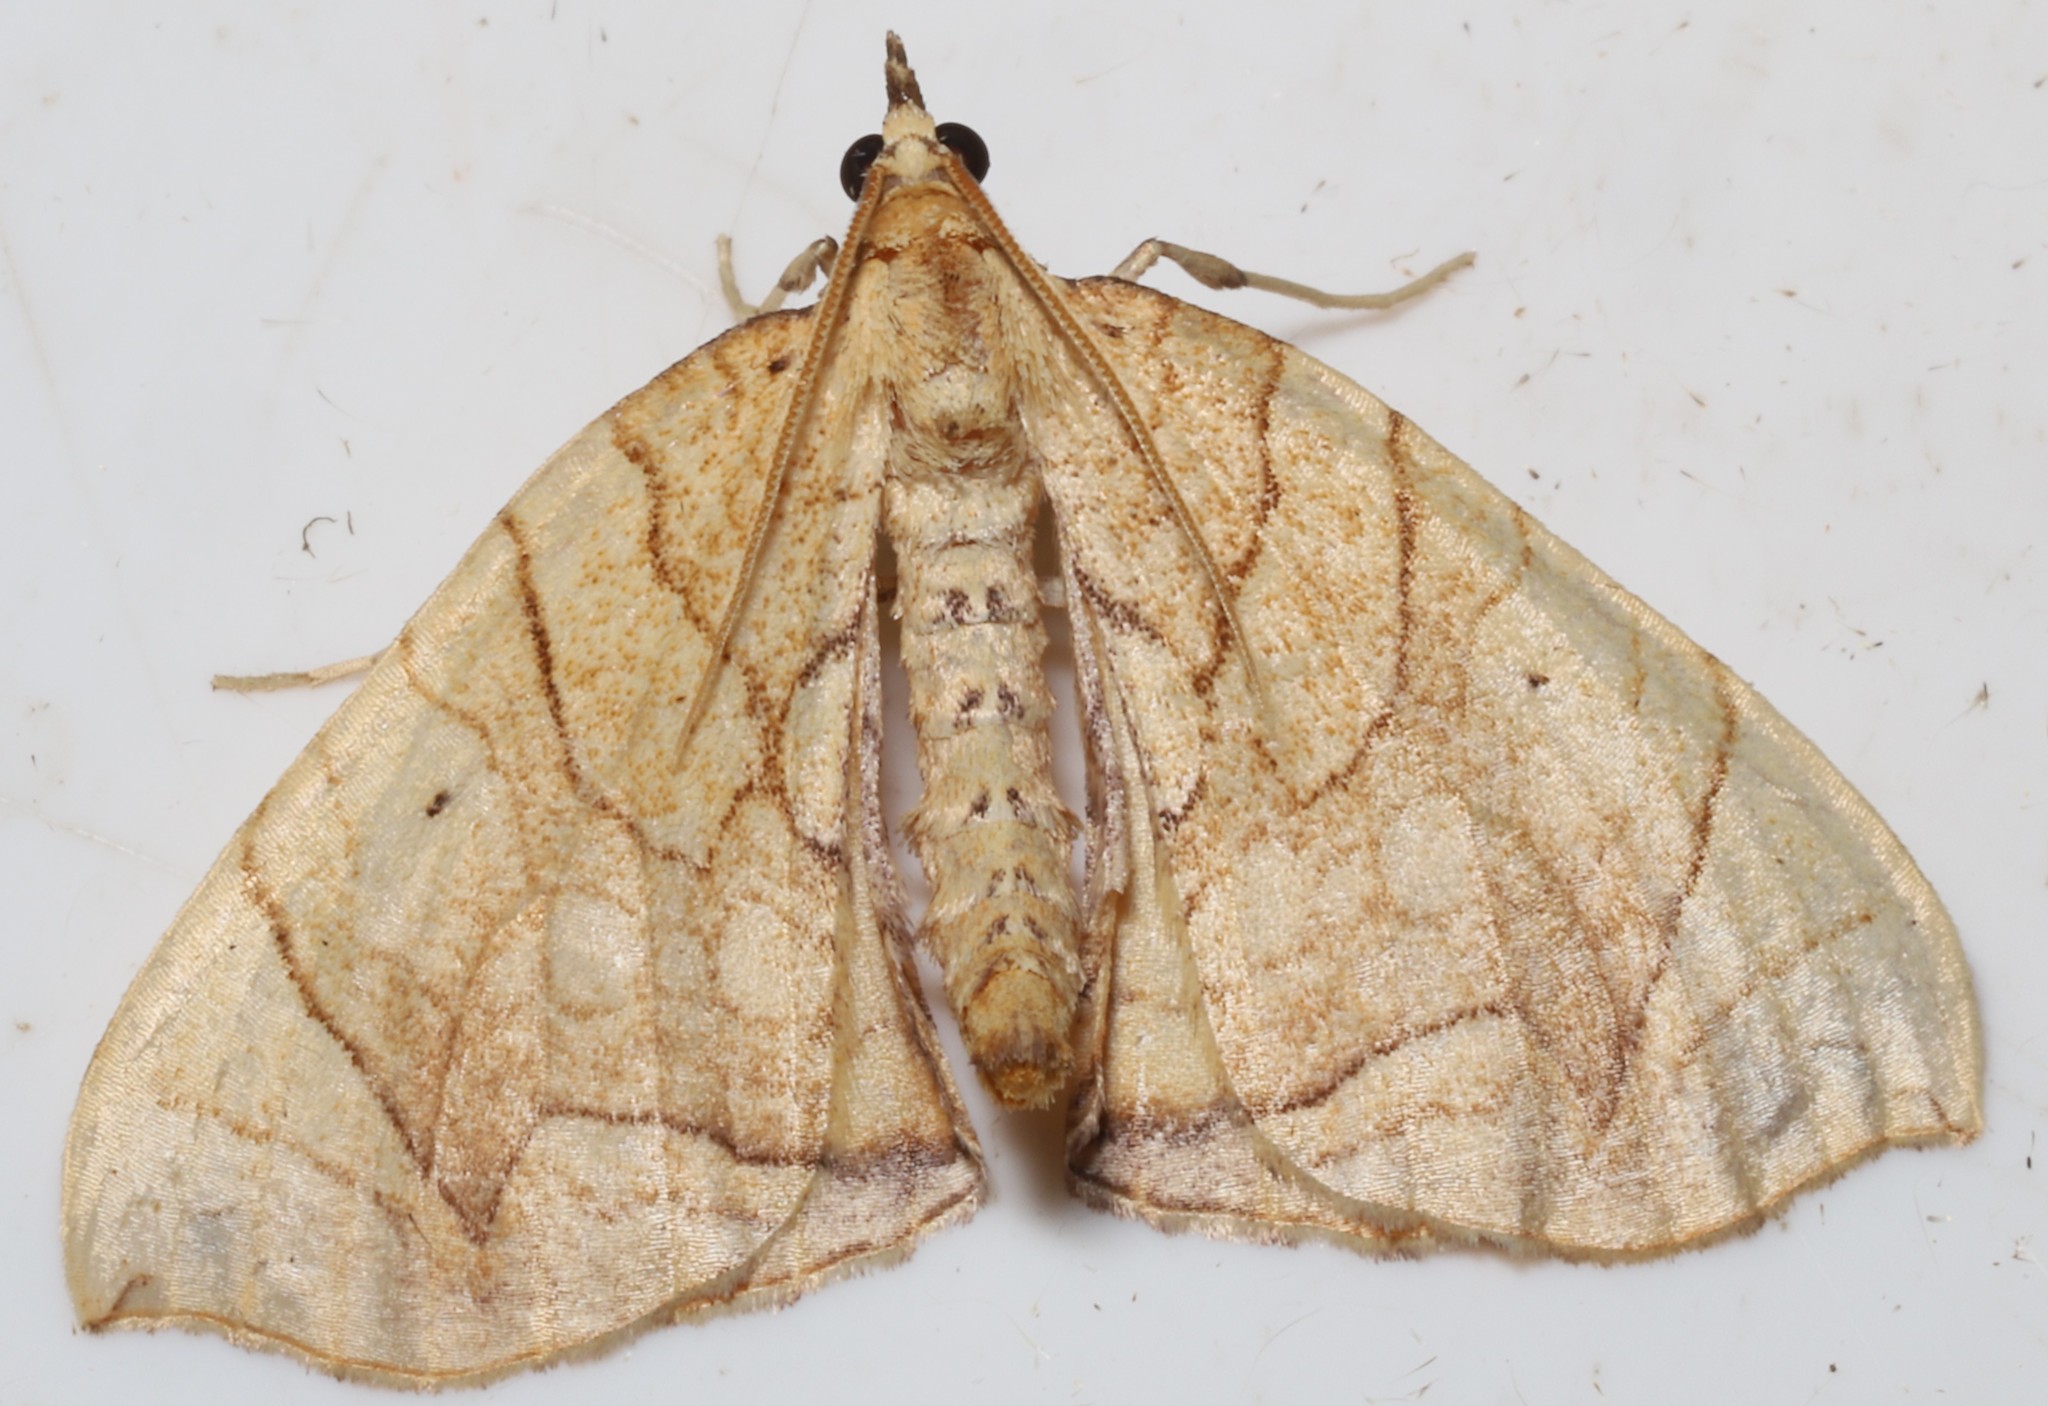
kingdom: Animalia
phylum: Arthropoda
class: Insecta
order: Lepidoptera
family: Geometridae
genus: Eulithis
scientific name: Eulithis
